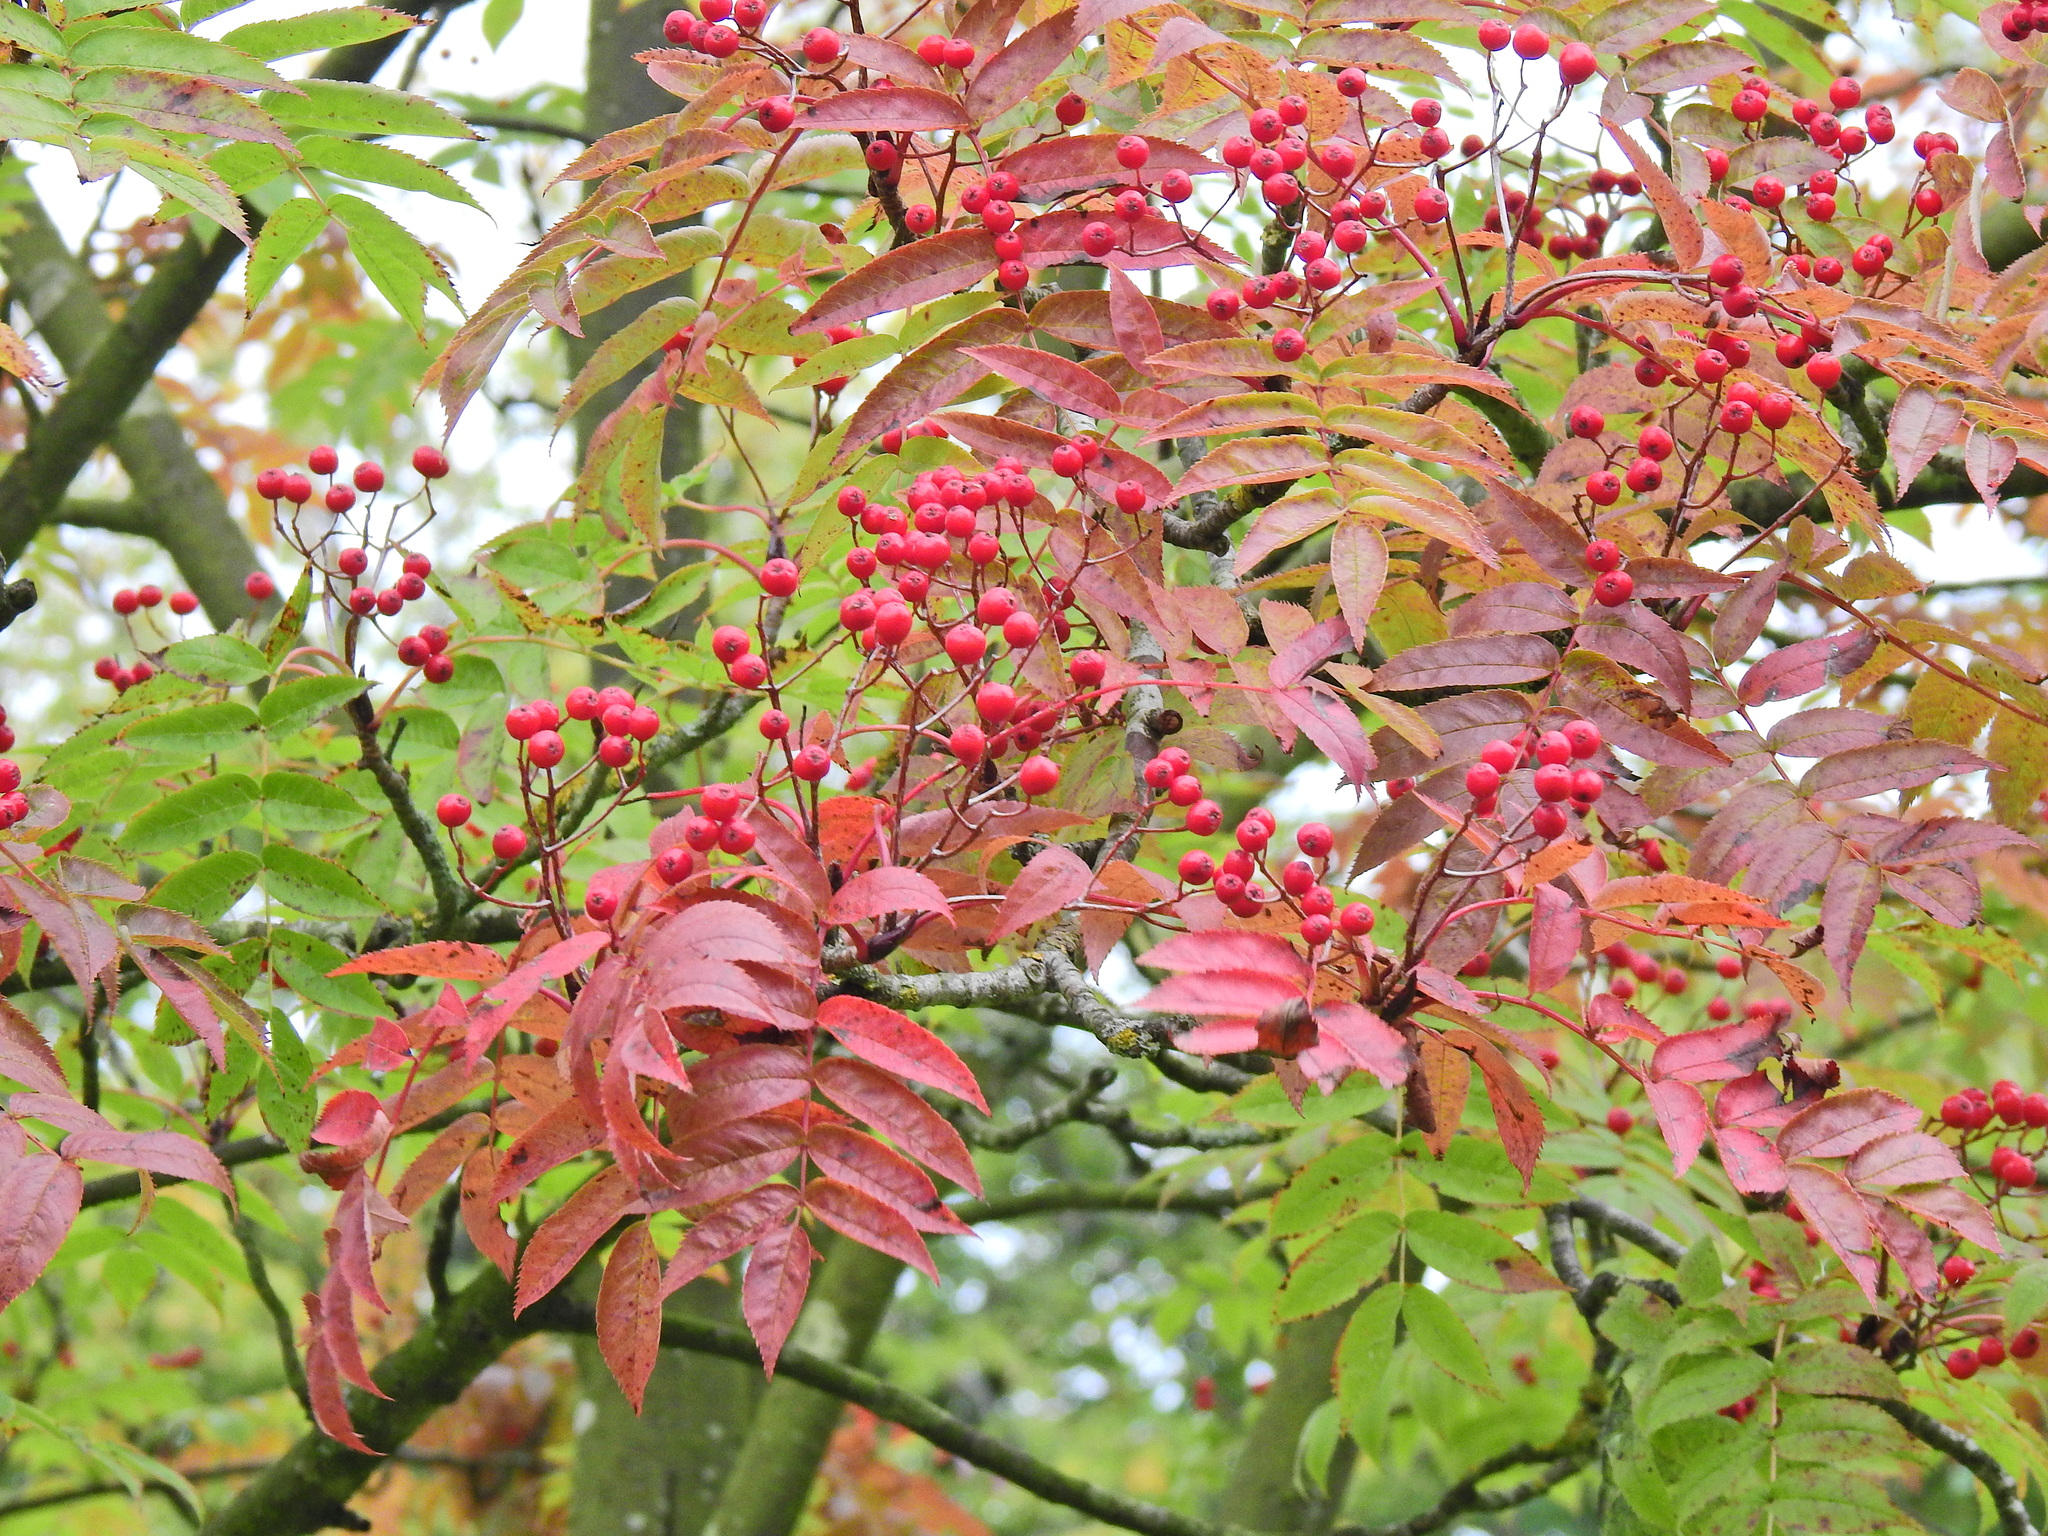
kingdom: Plantae
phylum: Tracheophyta
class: Magnoliopsida
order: Rosales
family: Rosaceae
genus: Sorbus
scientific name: Sorbus aucuparia
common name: Rowan
